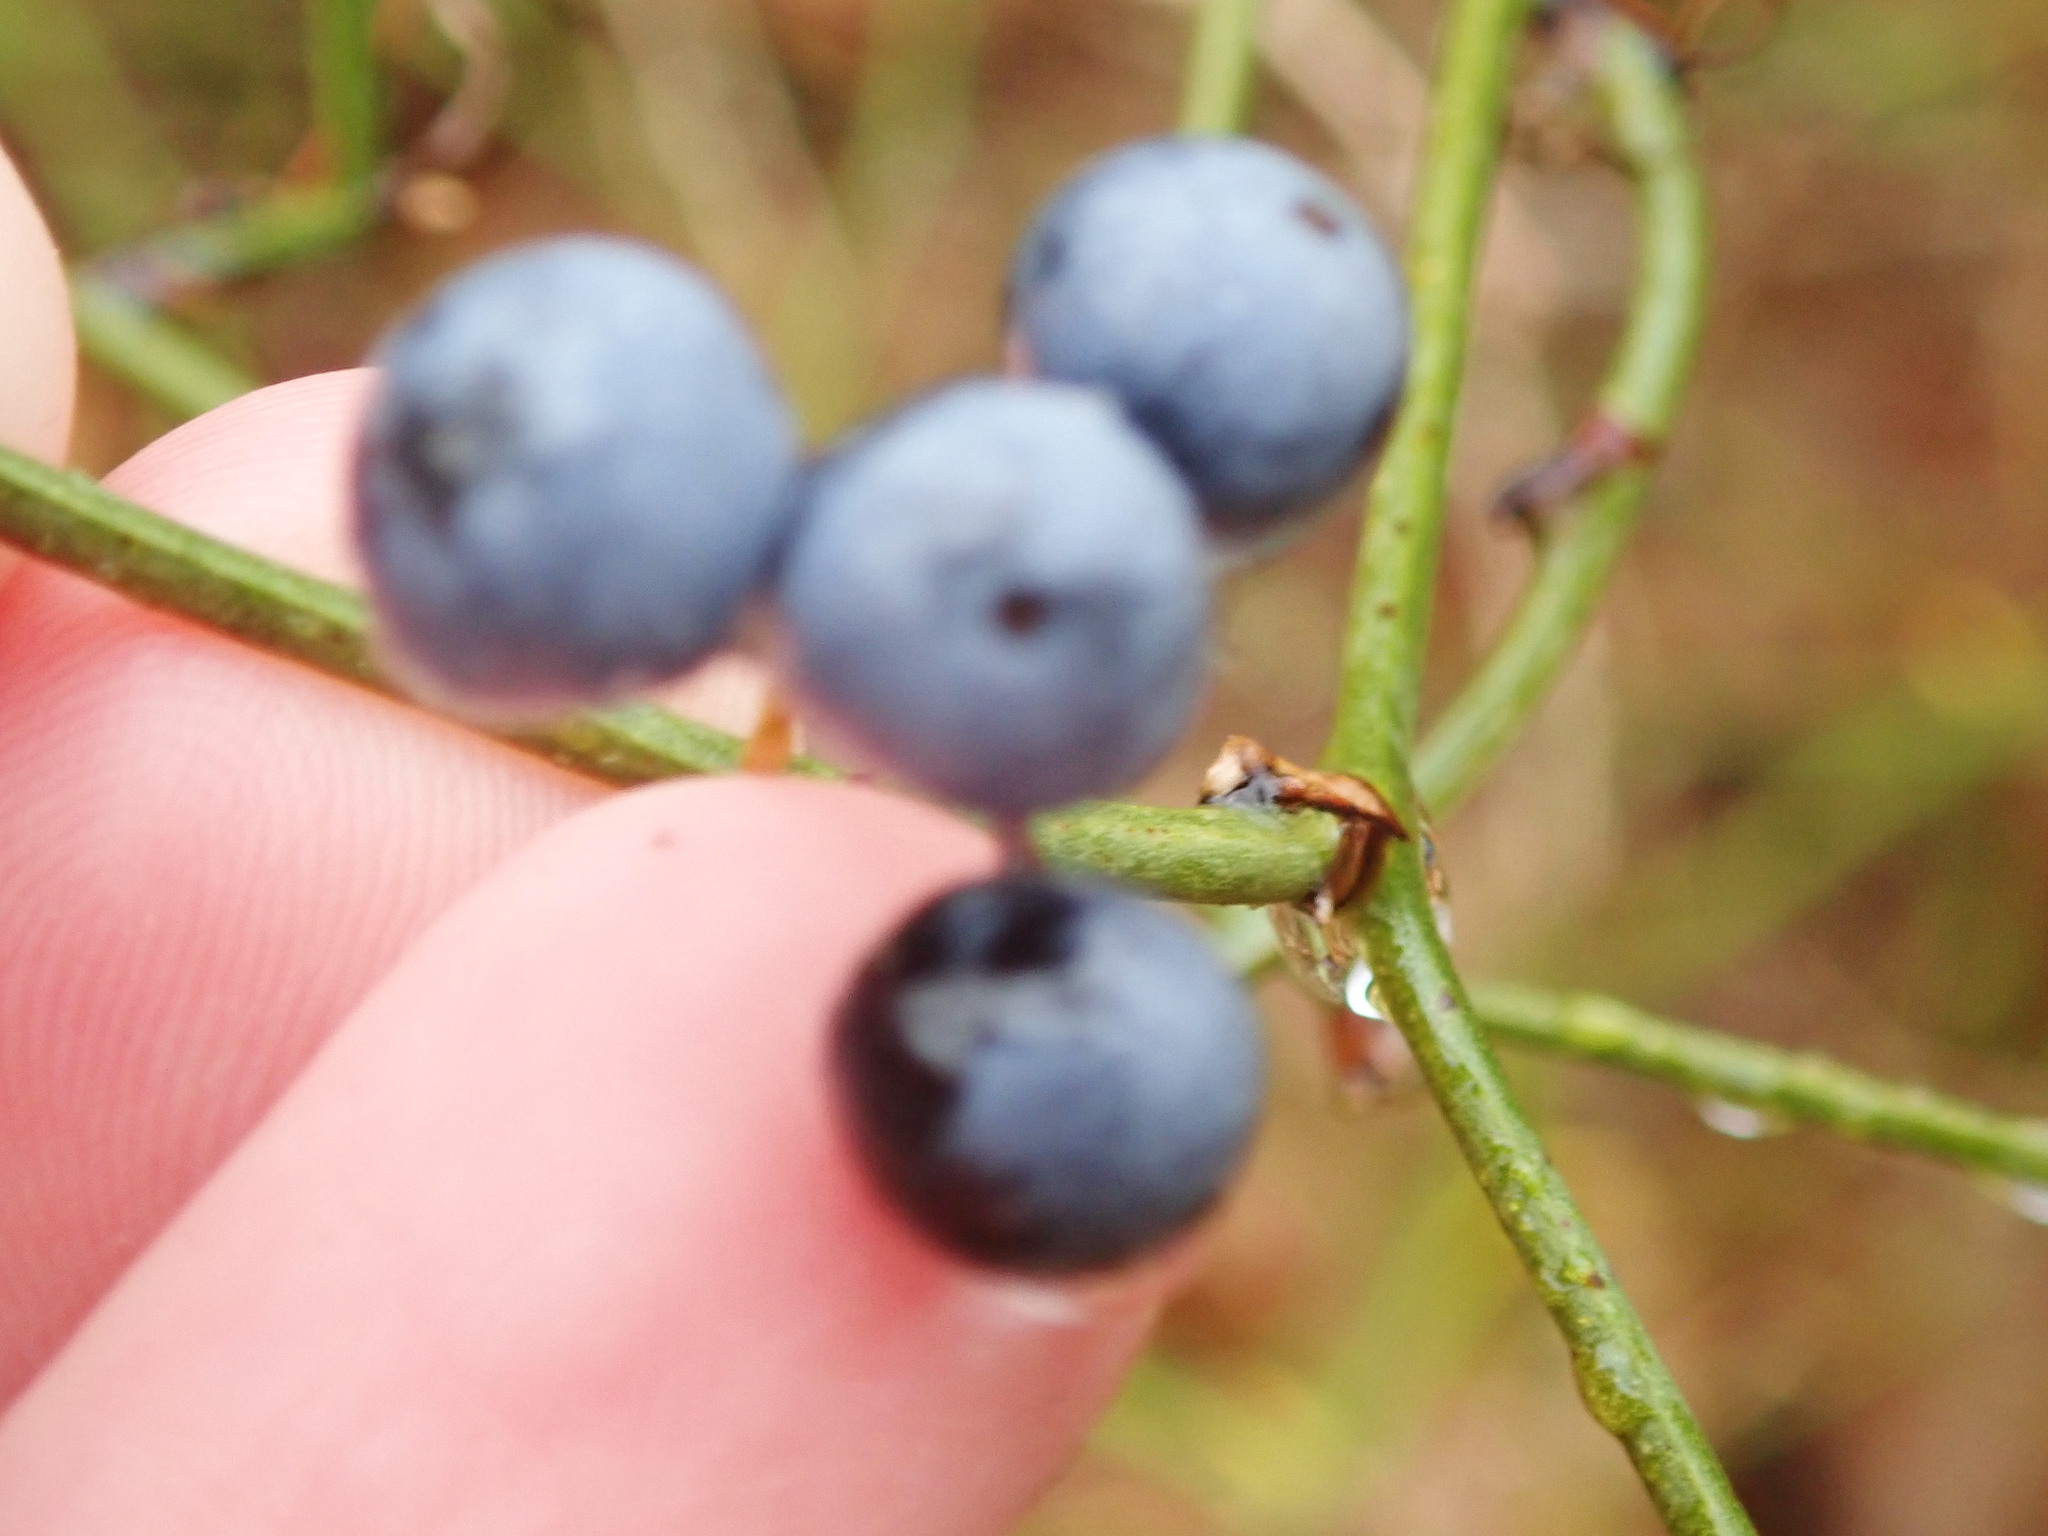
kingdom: Plantae
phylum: Tracheophyta
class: Liliopsida
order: Liliales
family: Smilacaceae
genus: Smilax
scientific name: Smilax rotundifolia
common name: Bullbriar
